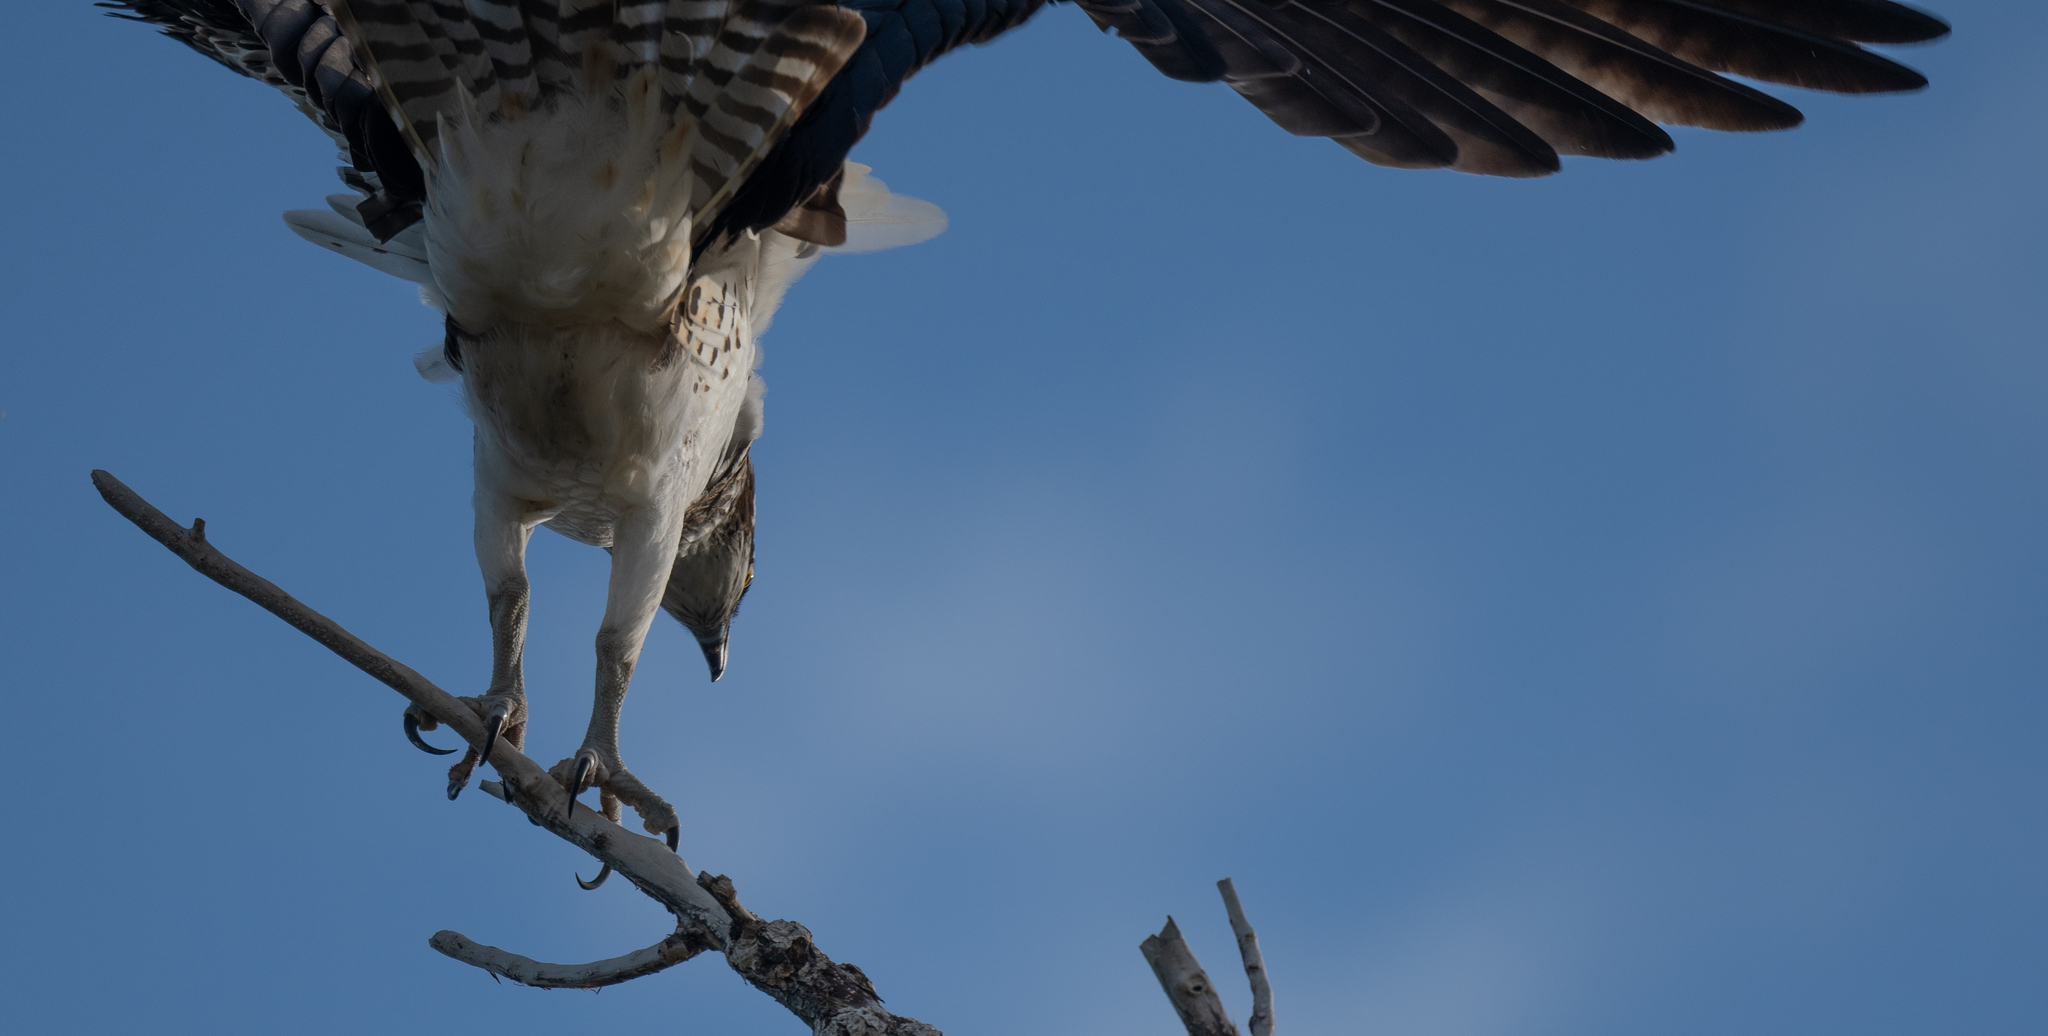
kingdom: Animalia
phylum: Chordata
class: Aves
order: Accipitriformes
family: Pandionidae
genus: Pandion
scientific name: Pandion haliaetus
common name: Osprey
